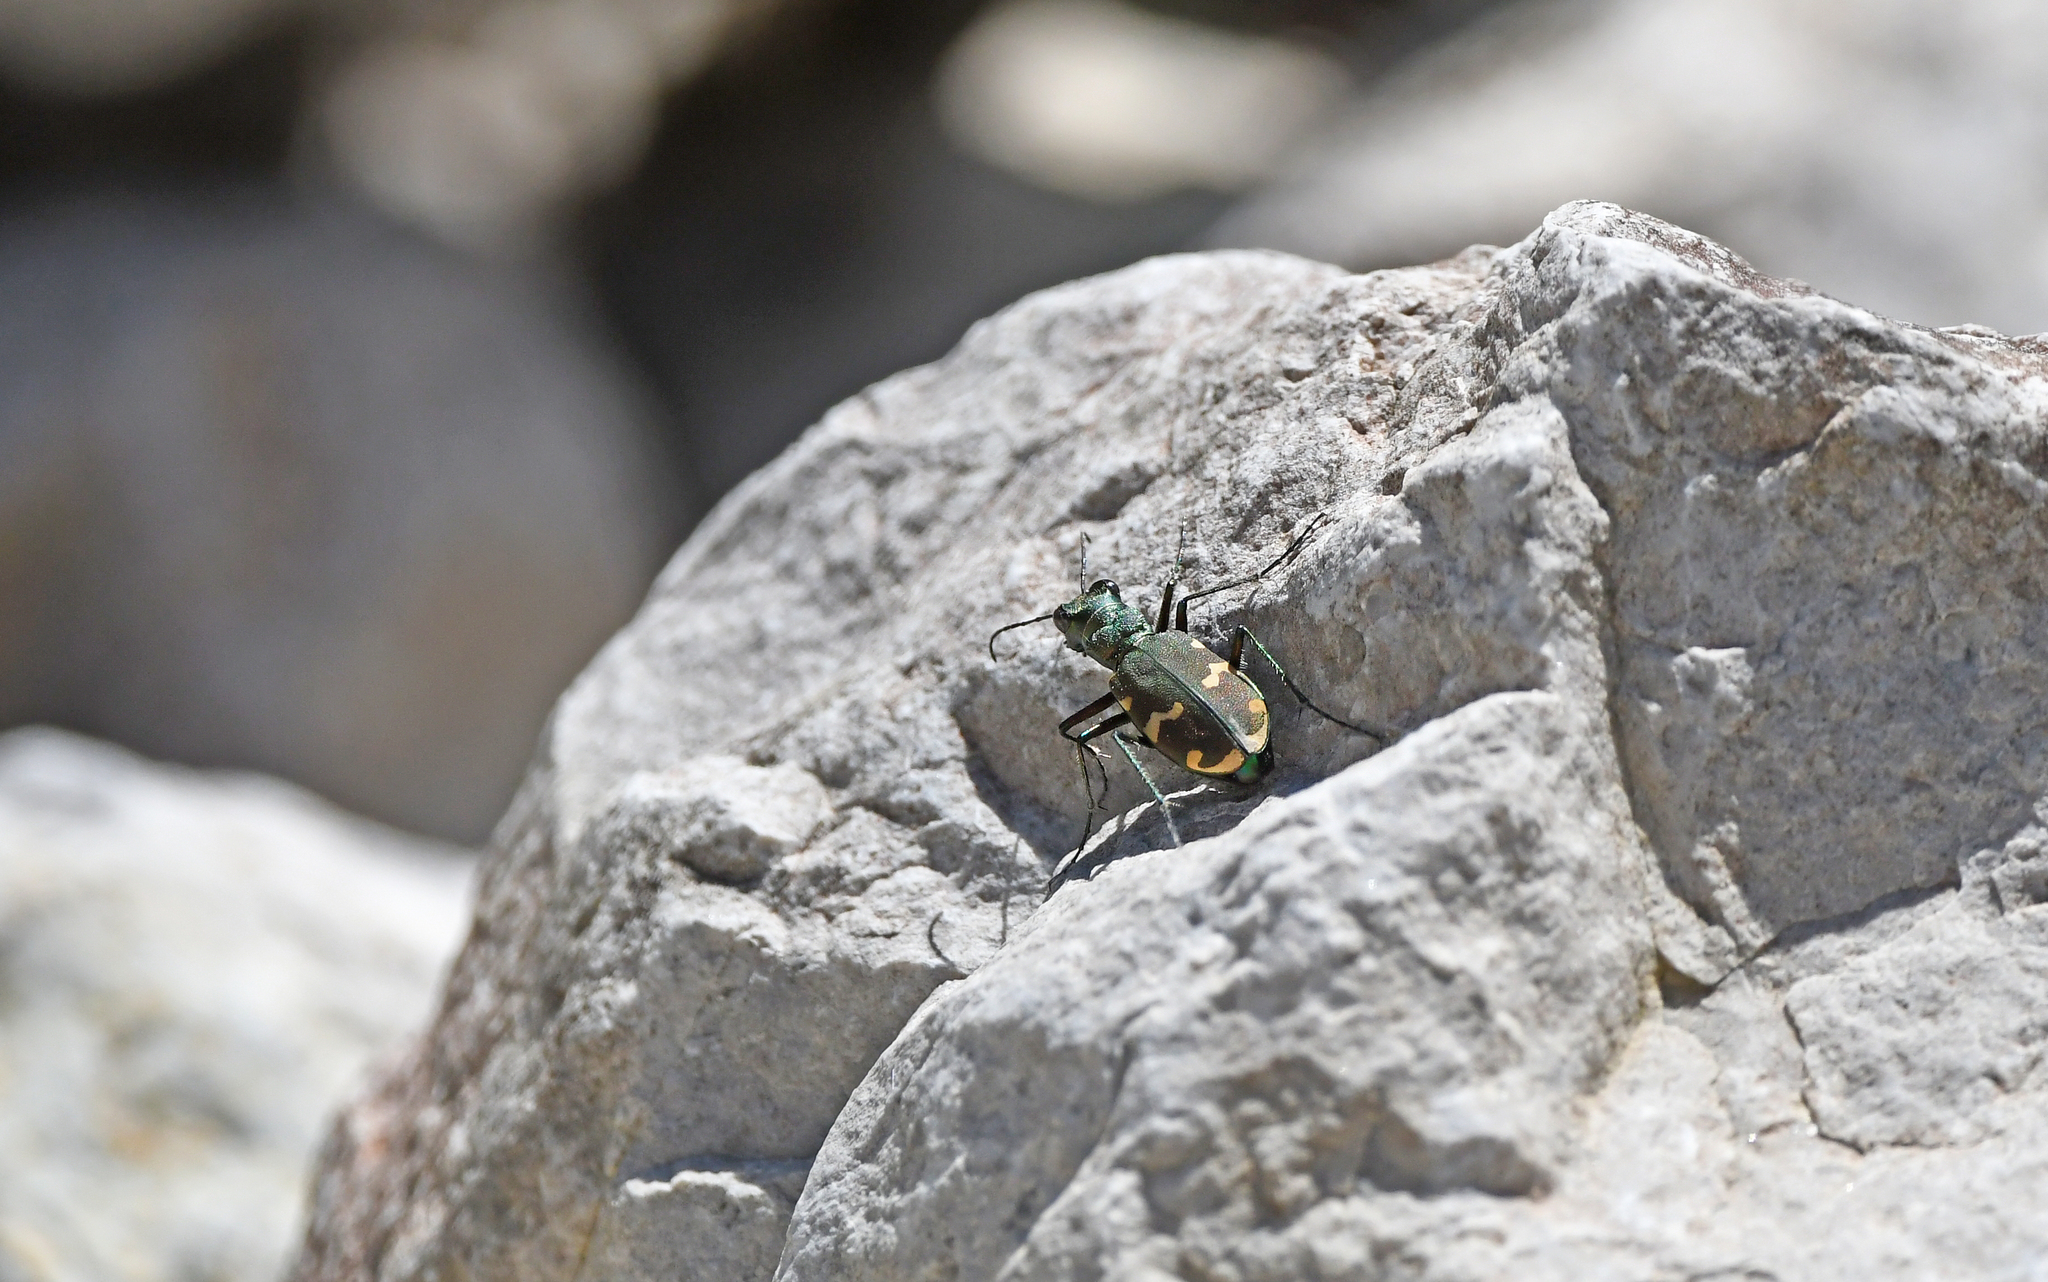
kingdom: Animalia
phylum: Arthropoda
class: Insecta
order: Coleoptera
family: Carabidae
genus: Cicindela
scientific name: Cicindela sylvicola
